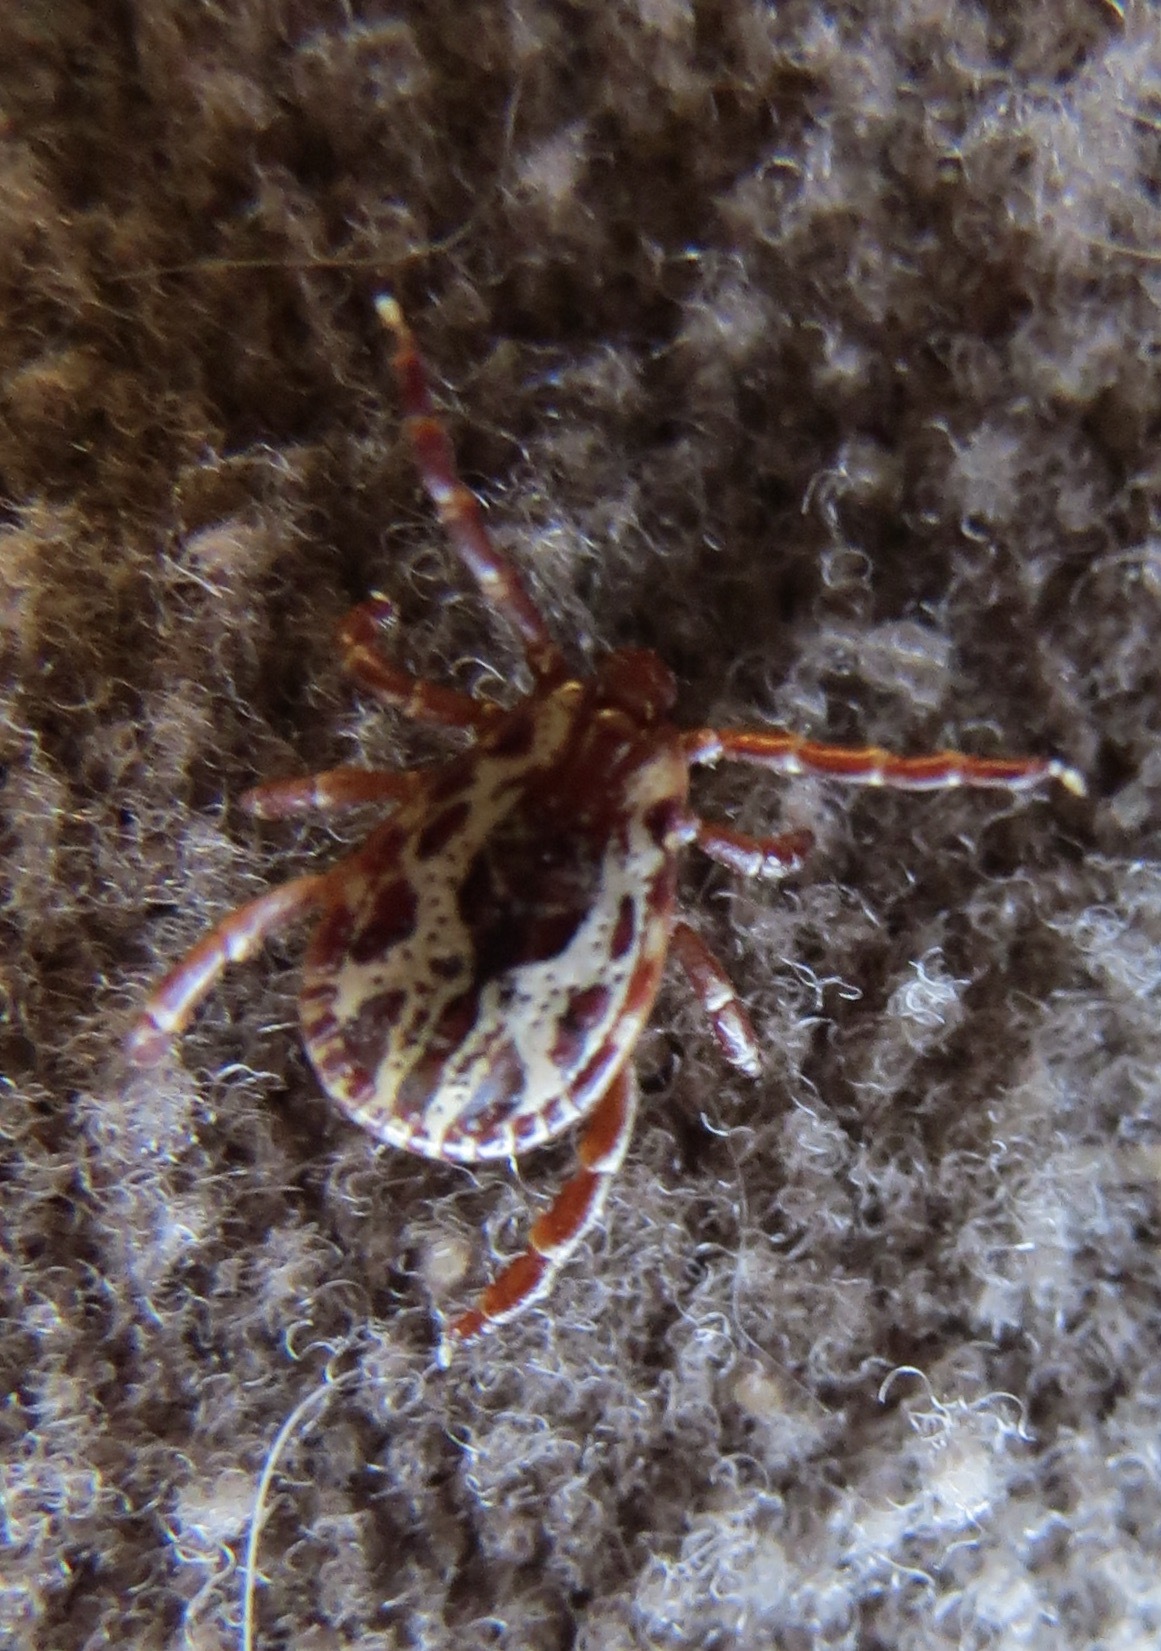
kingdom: Animalia
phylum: Arthropoda
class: Arachnida
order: Ixodida
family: Ixodidae
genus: Dermacentor
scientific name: Dermacentor variabilis
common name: American dog tick
